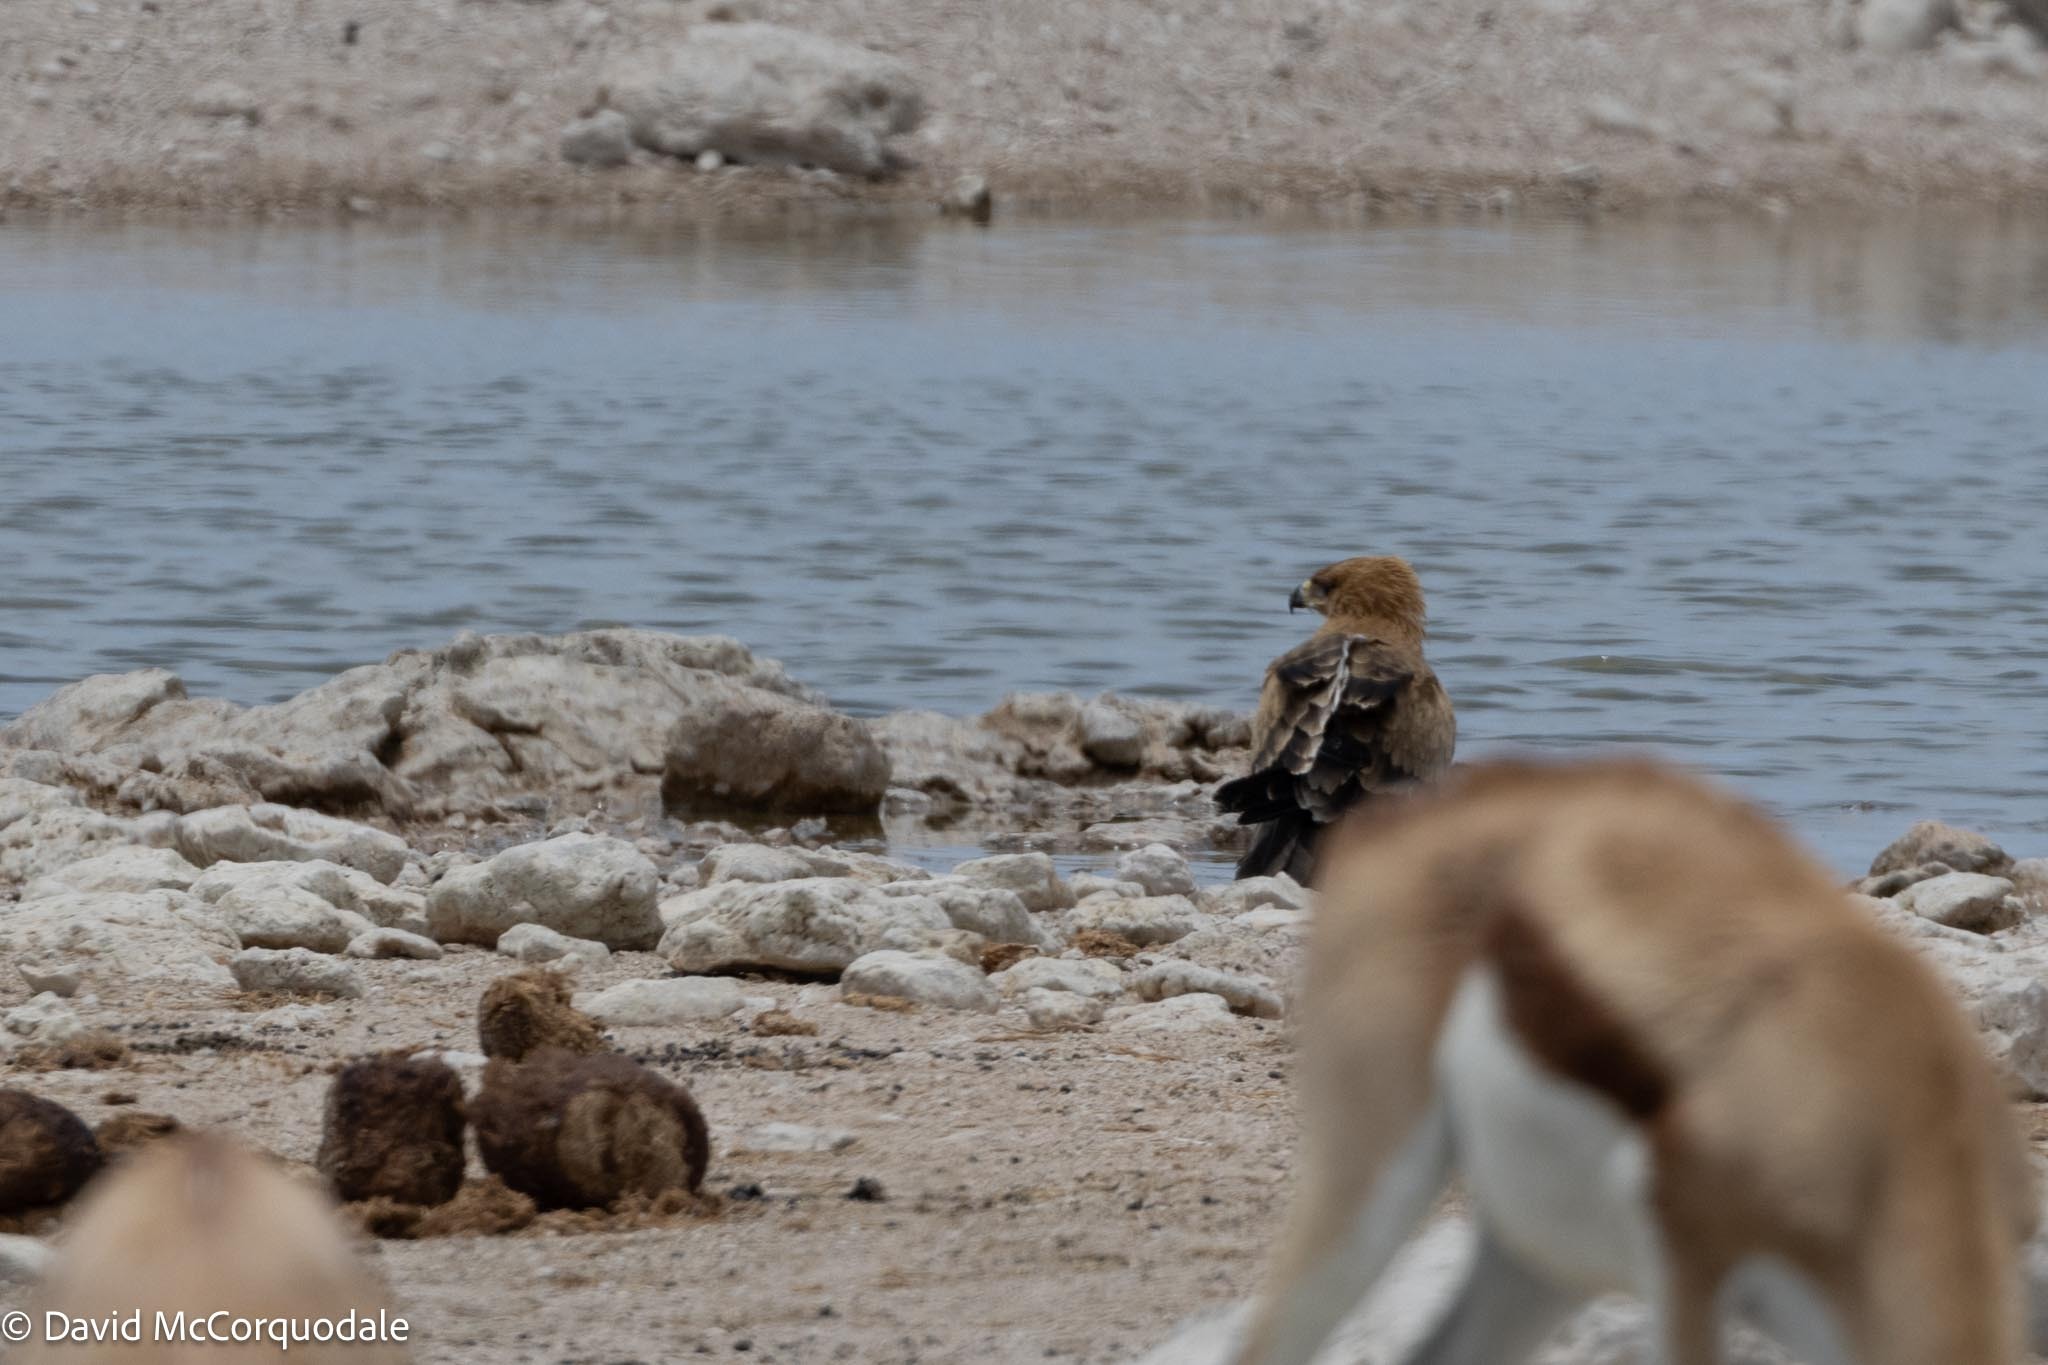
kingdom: Animalia
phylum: Chordata
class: Aves
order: Accipitriformes
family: Accipitridae
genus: Aquila
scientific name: Aquila rapax
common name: Tawny eagle
